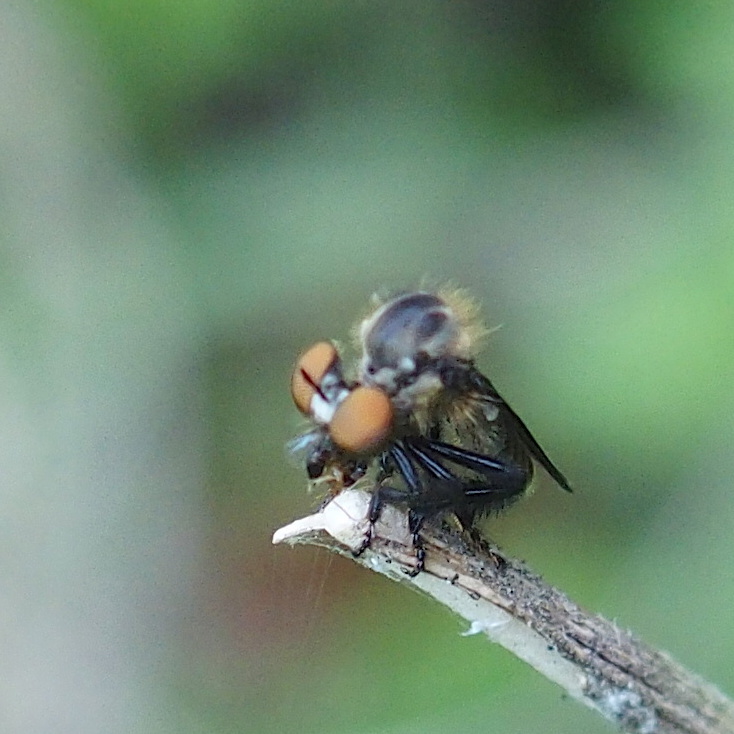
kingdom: Animalia
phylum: Arthropoda
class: Insecta
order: Diptera
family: Asilidae
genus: Trigonomima
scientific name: Trigonomima pennipes
